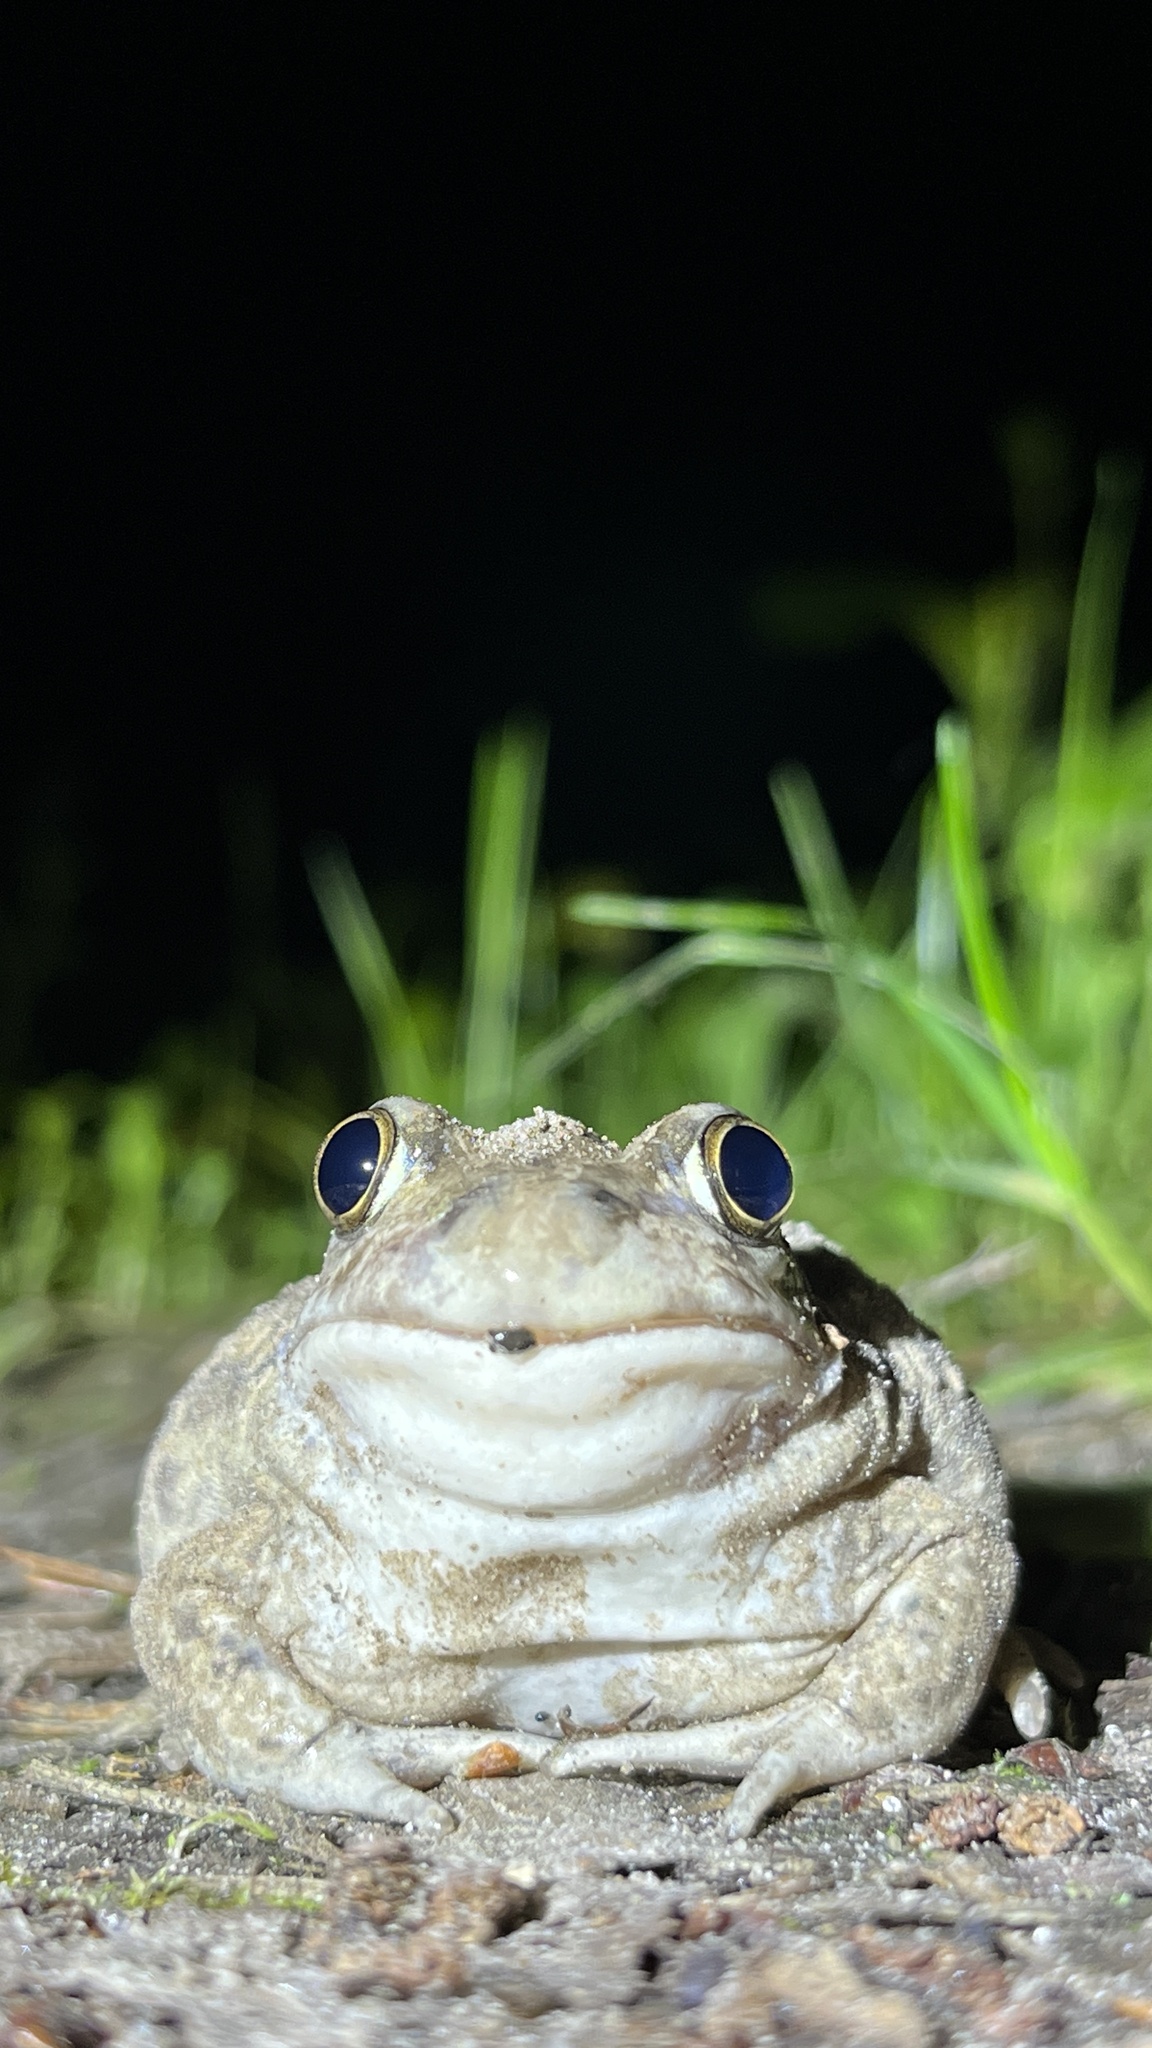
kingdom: Animalia
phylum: Chordata
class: Amphibia
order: Anura
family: Pelobatidae
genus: Pelobates
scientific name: Pelobates vespertinus
